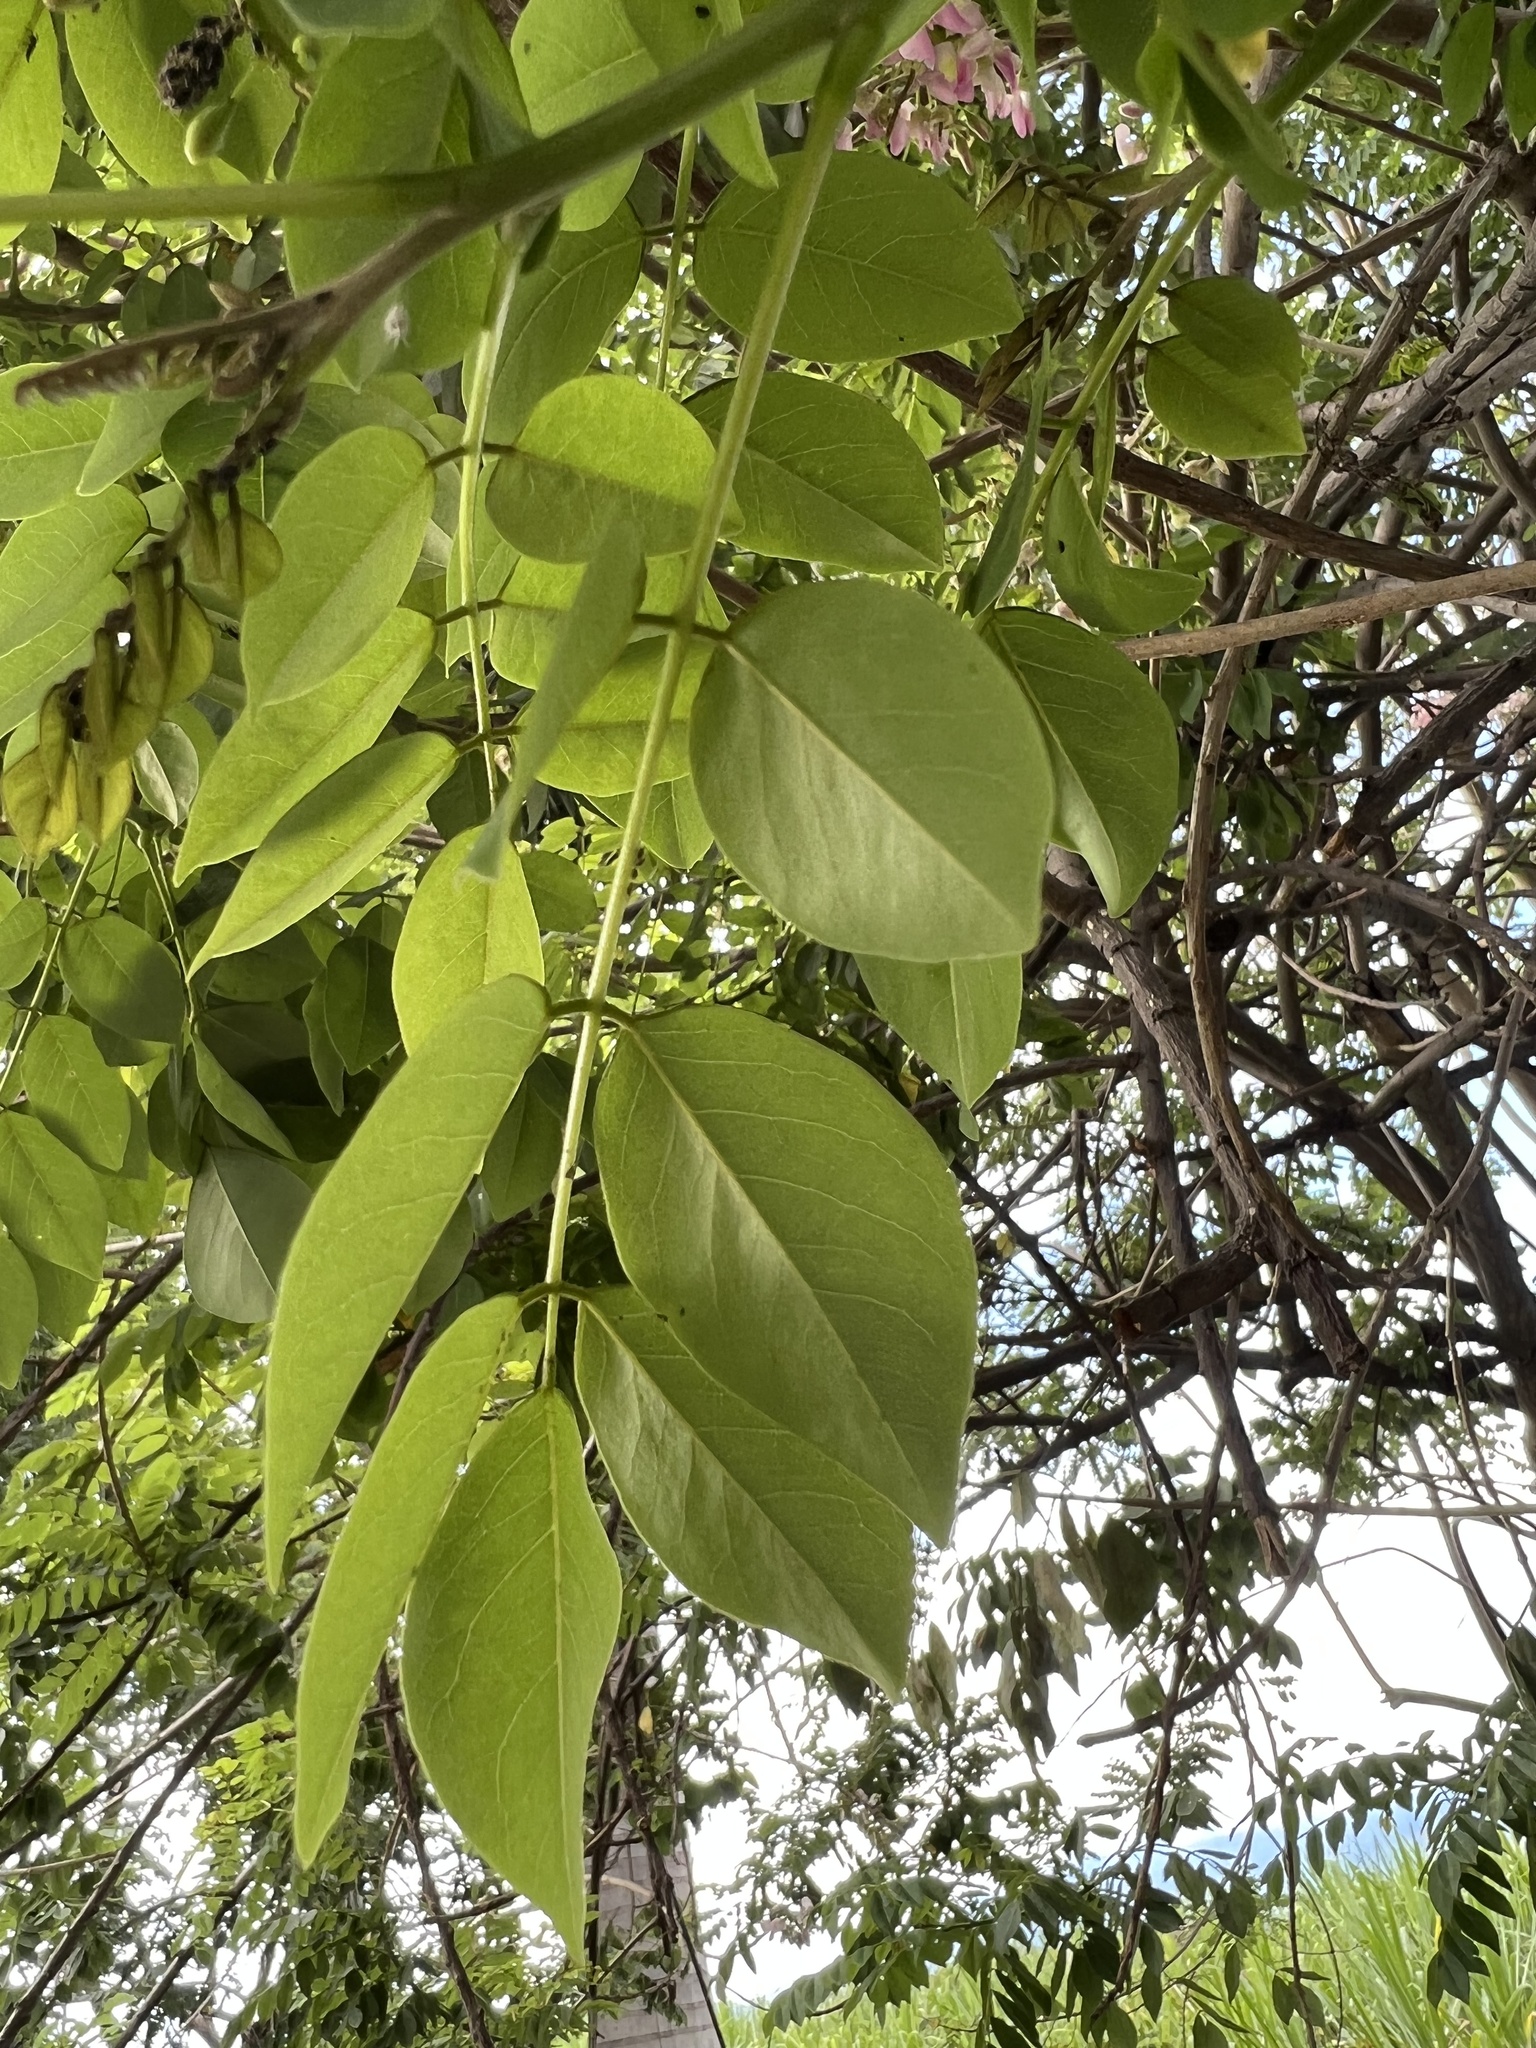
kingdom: Plantae
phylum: Tracheophyta
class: Magnoliopsida
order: Fabales
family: Fabaceae
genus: Gliricidia
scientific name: Gliricidia sepium
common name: Quickstick
